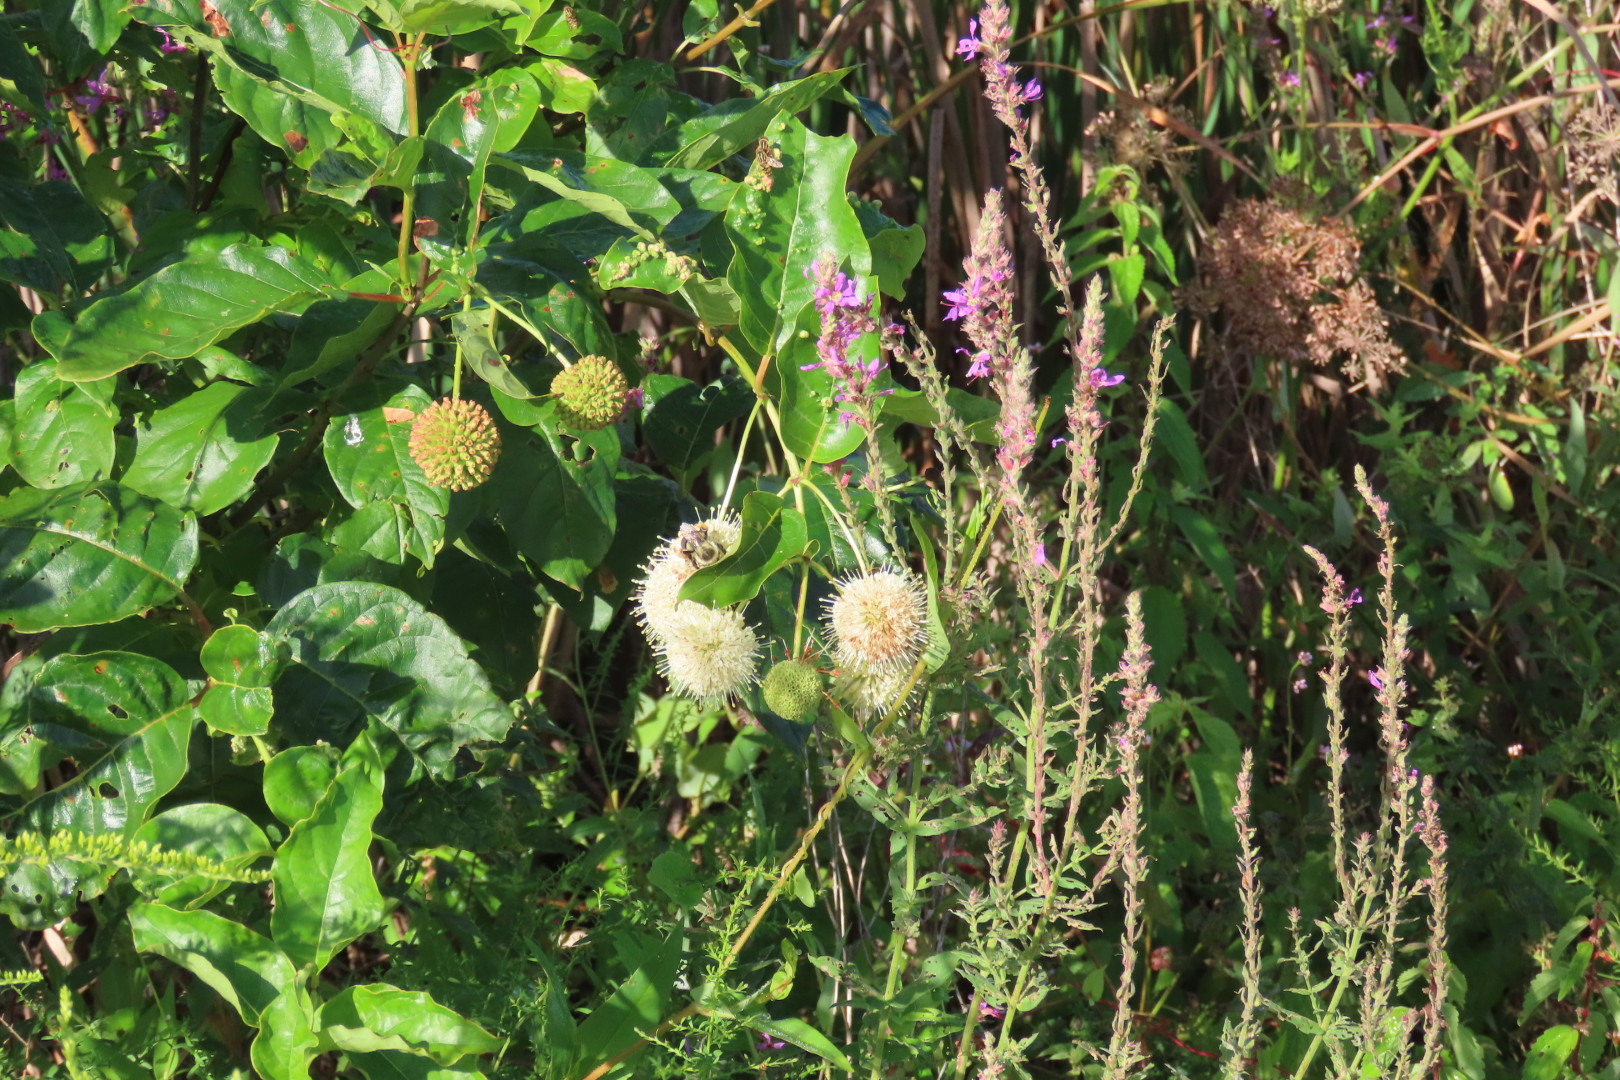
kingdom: Plantae
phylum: Tracheophyta
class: Magnoliopsida
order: Gentianales
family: Rubiaceae
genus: Cephalanthus
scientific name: Cephalanthus occidentalis
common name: Button-willow
